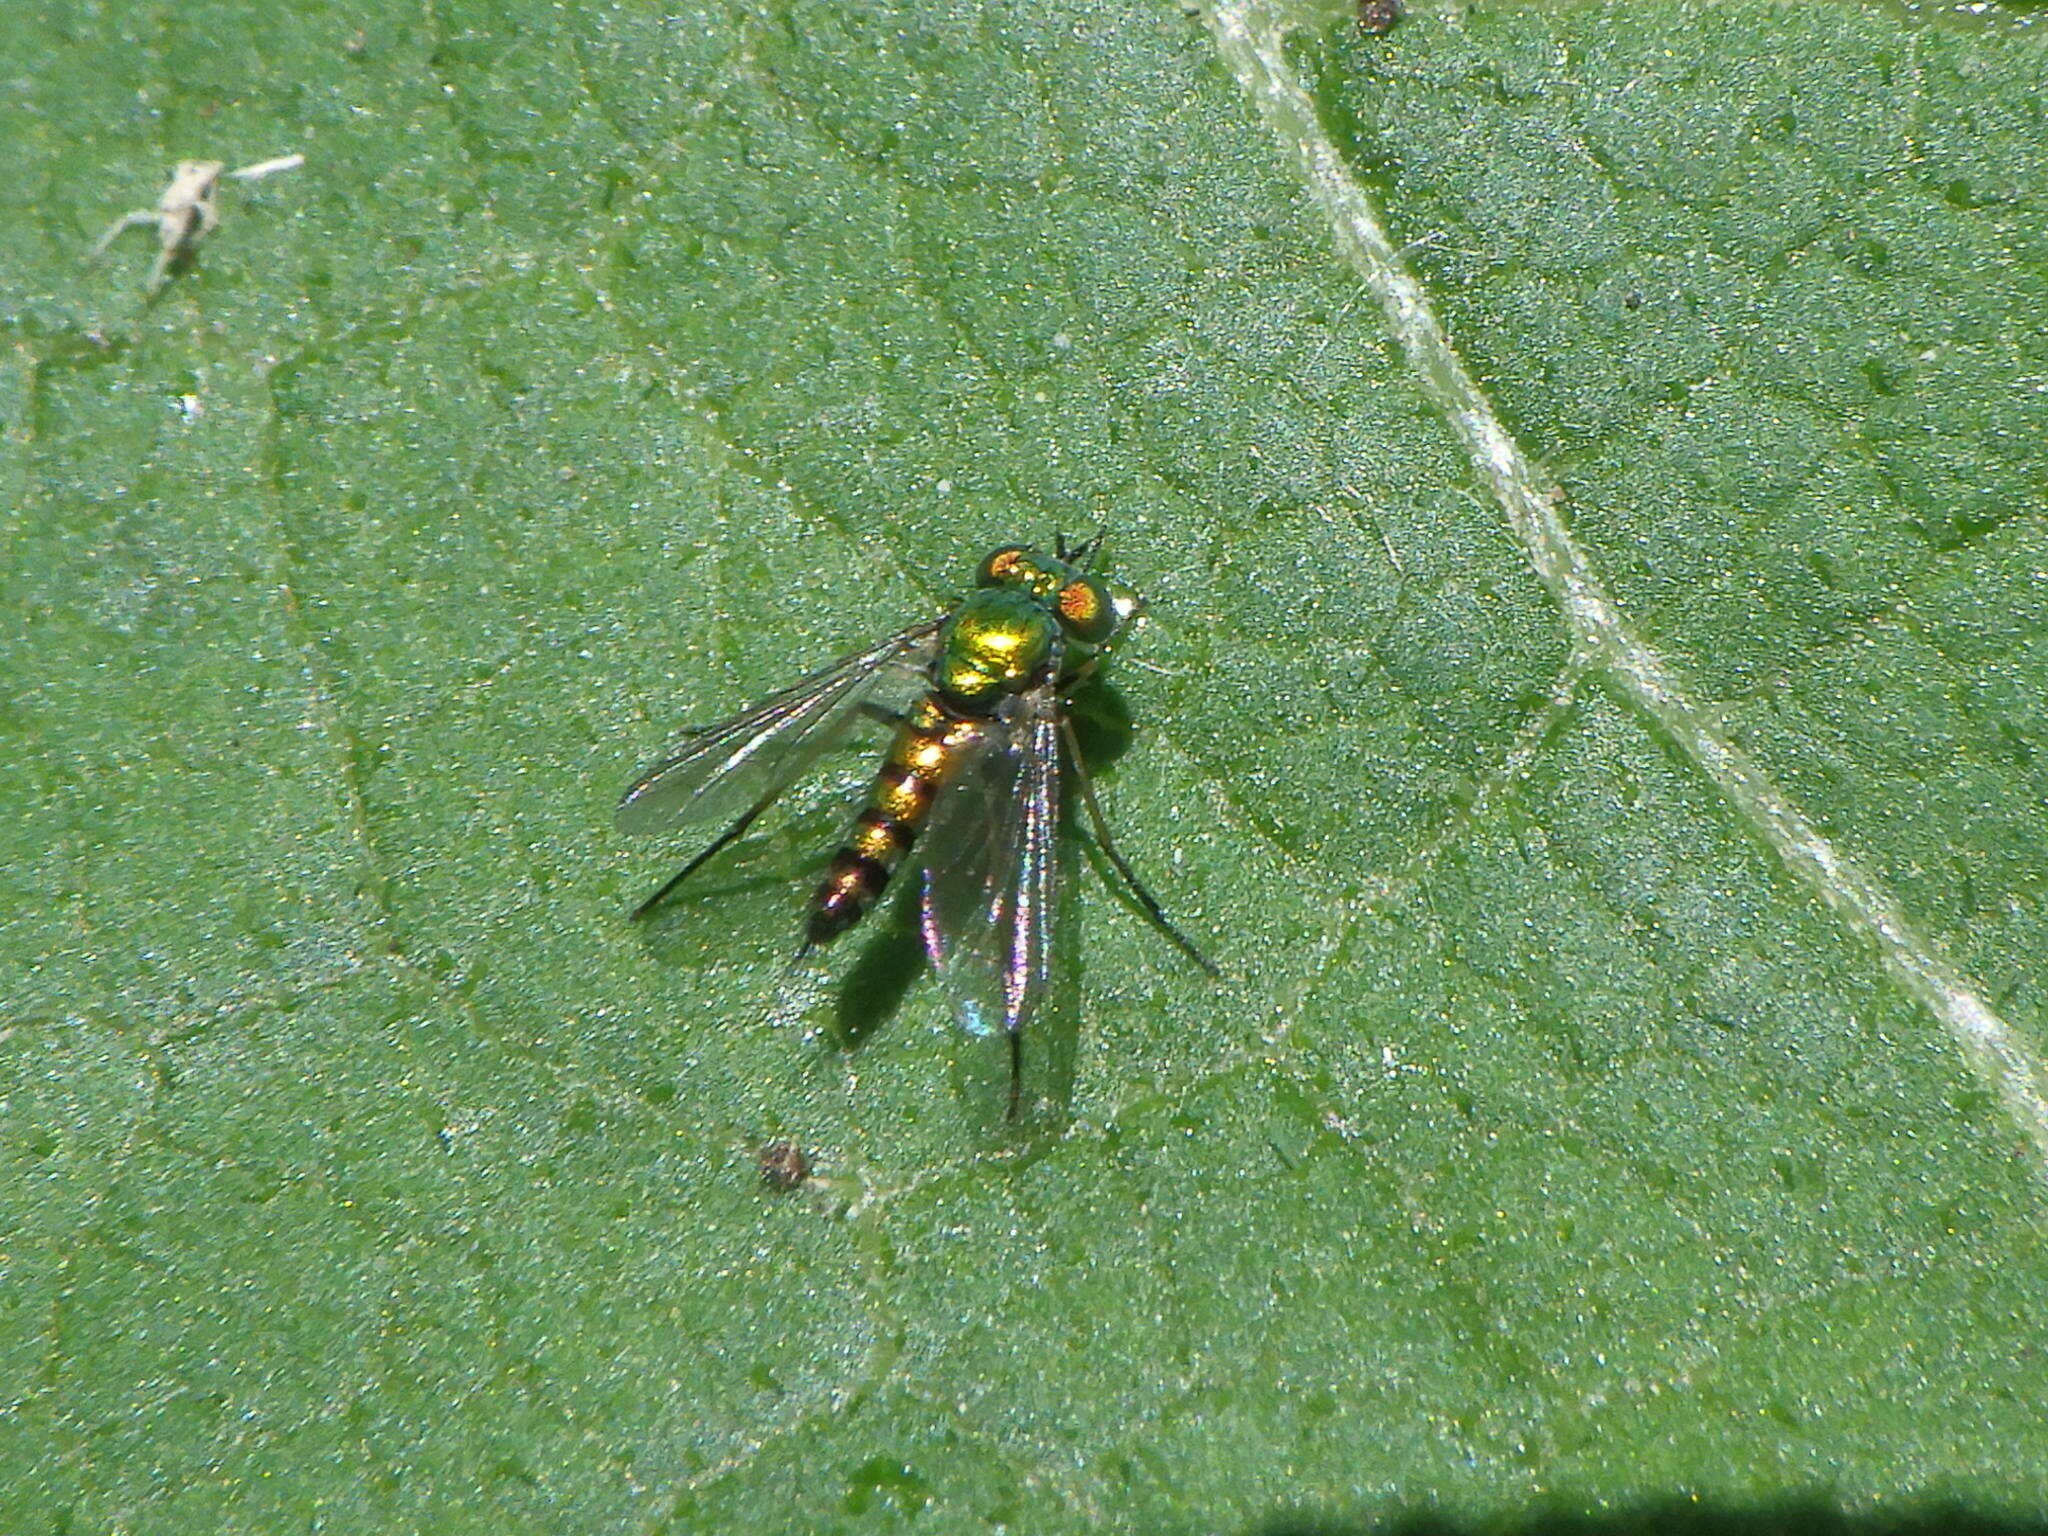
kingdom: Animalia
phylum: Arthropoda
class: Insecta
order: Diptera
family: Dolichopodidae
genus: Condylostylus
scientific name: Condylostylus caudatus
